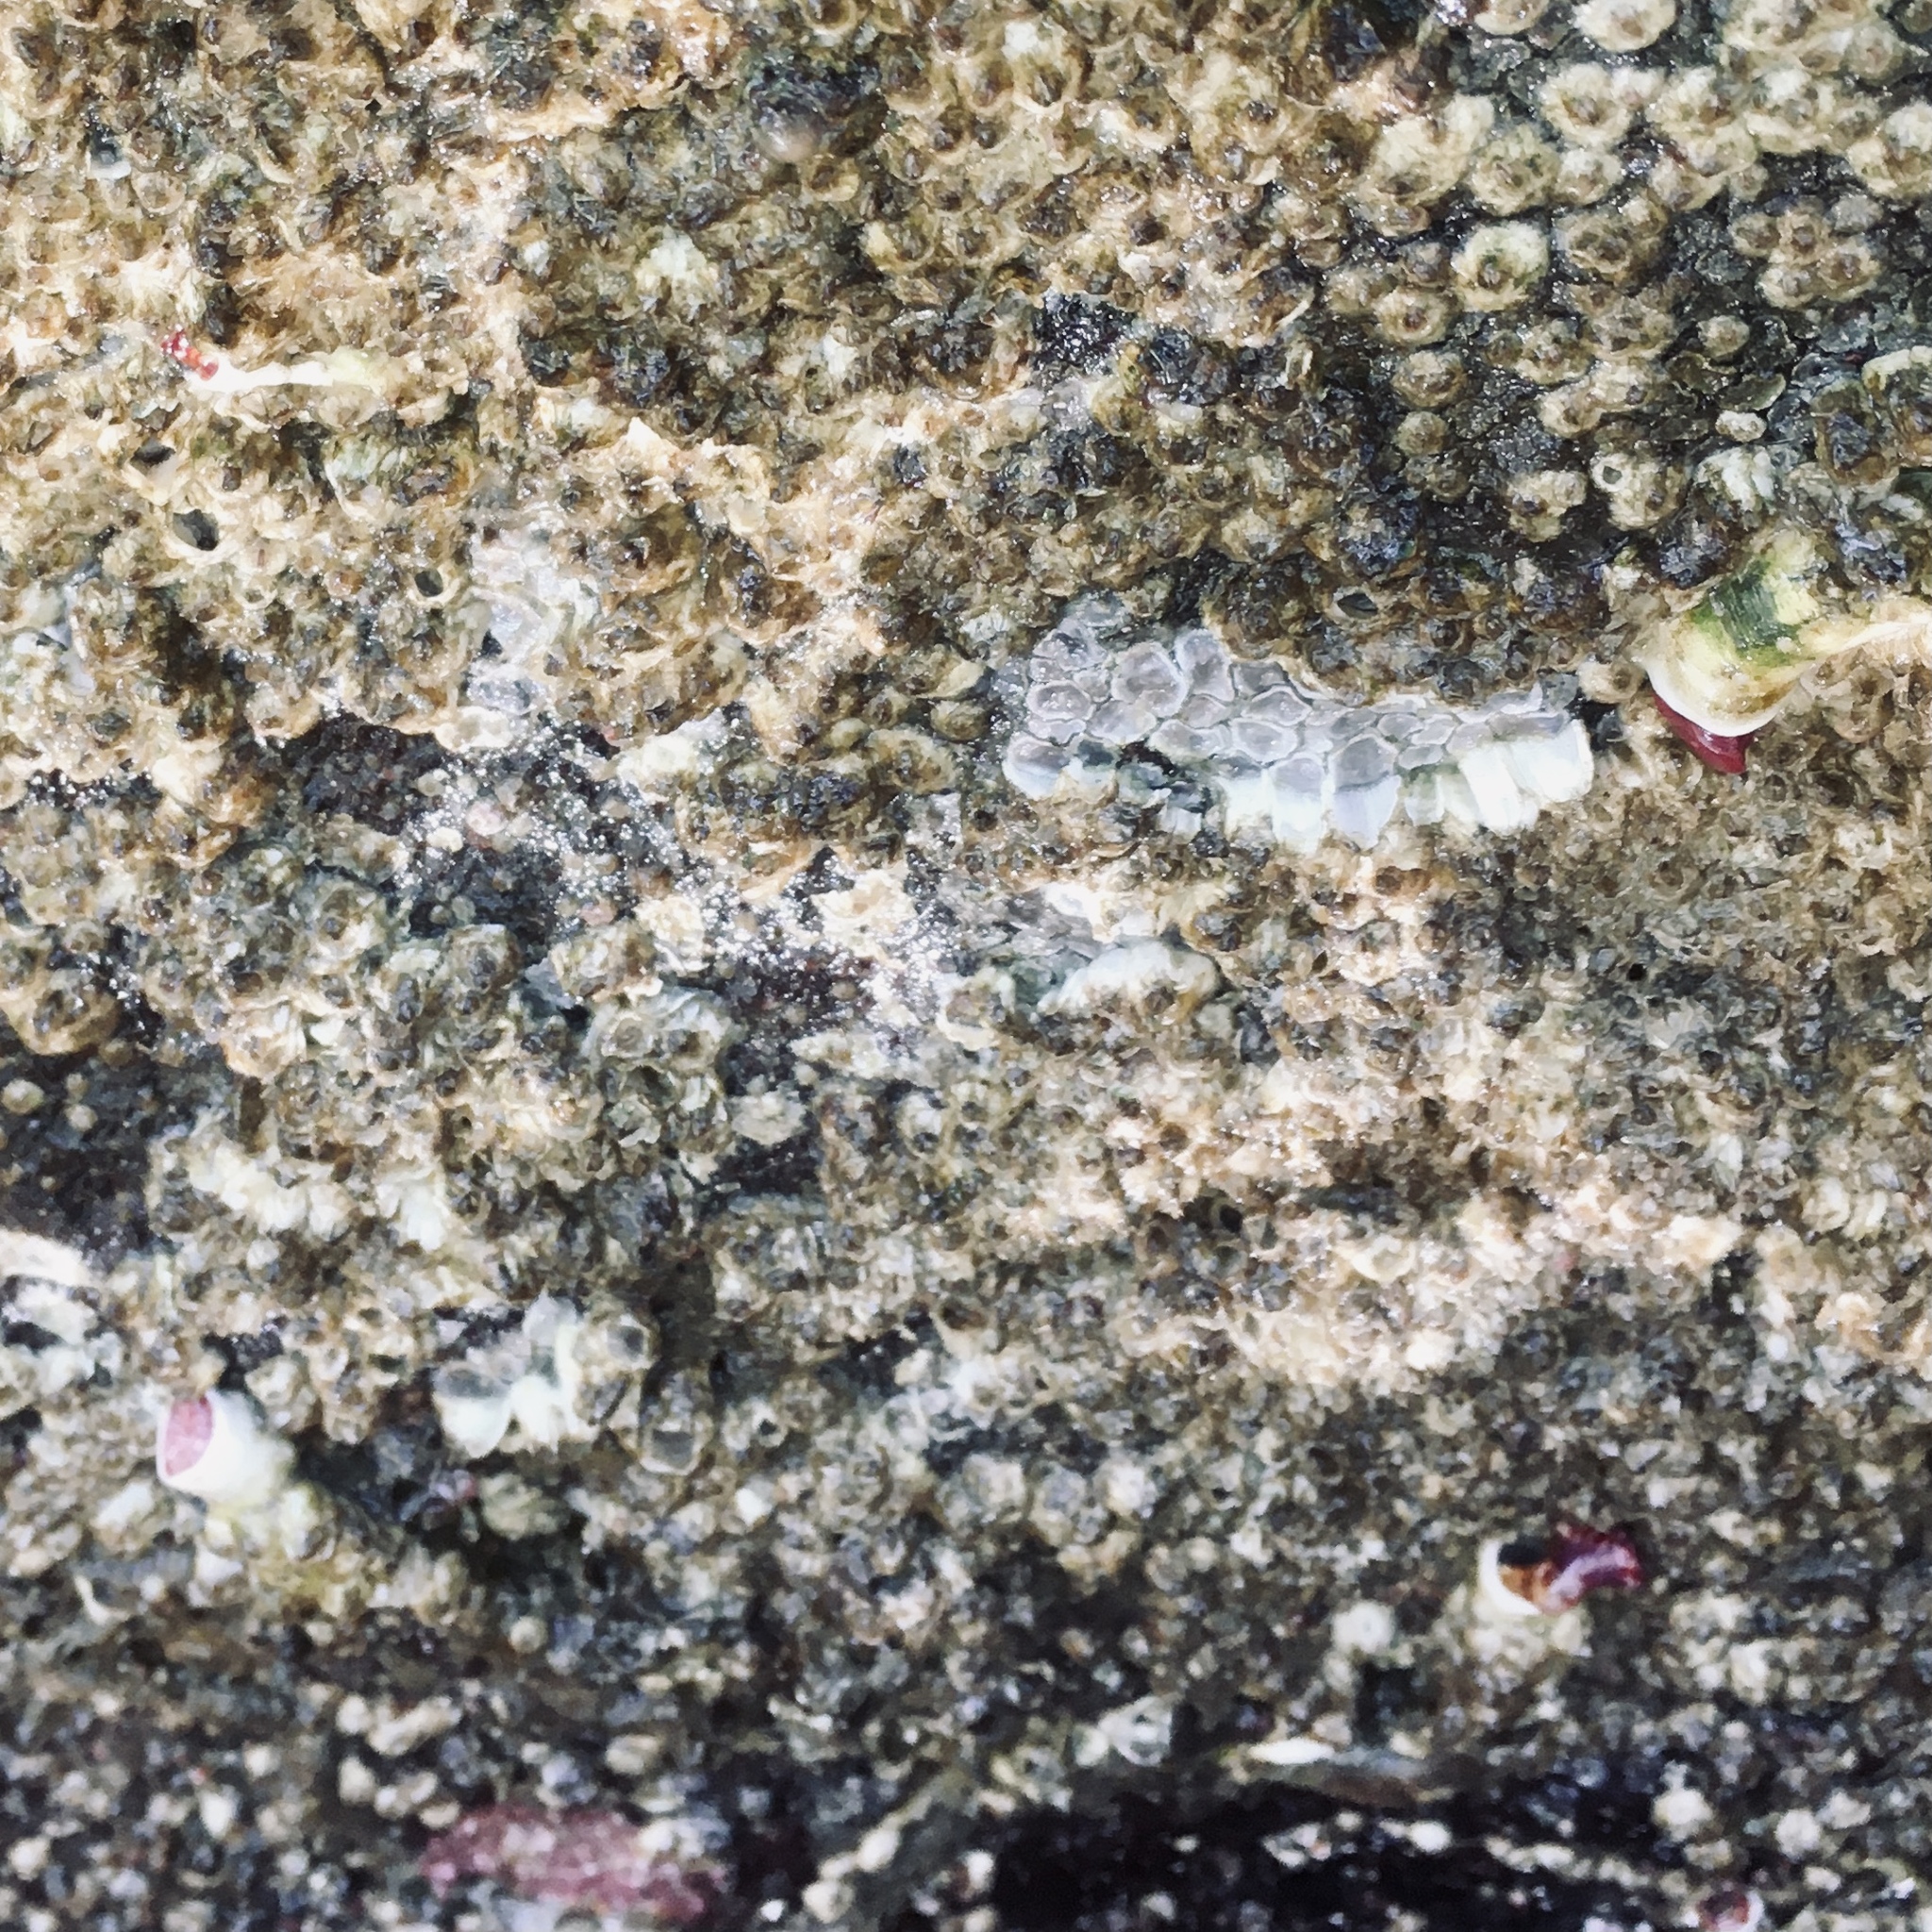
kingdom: Animalia
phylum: Annelida
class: Polychaeta
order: Sabellida
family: Serpulidae
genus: Serpula
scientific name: Serpula columbiana
